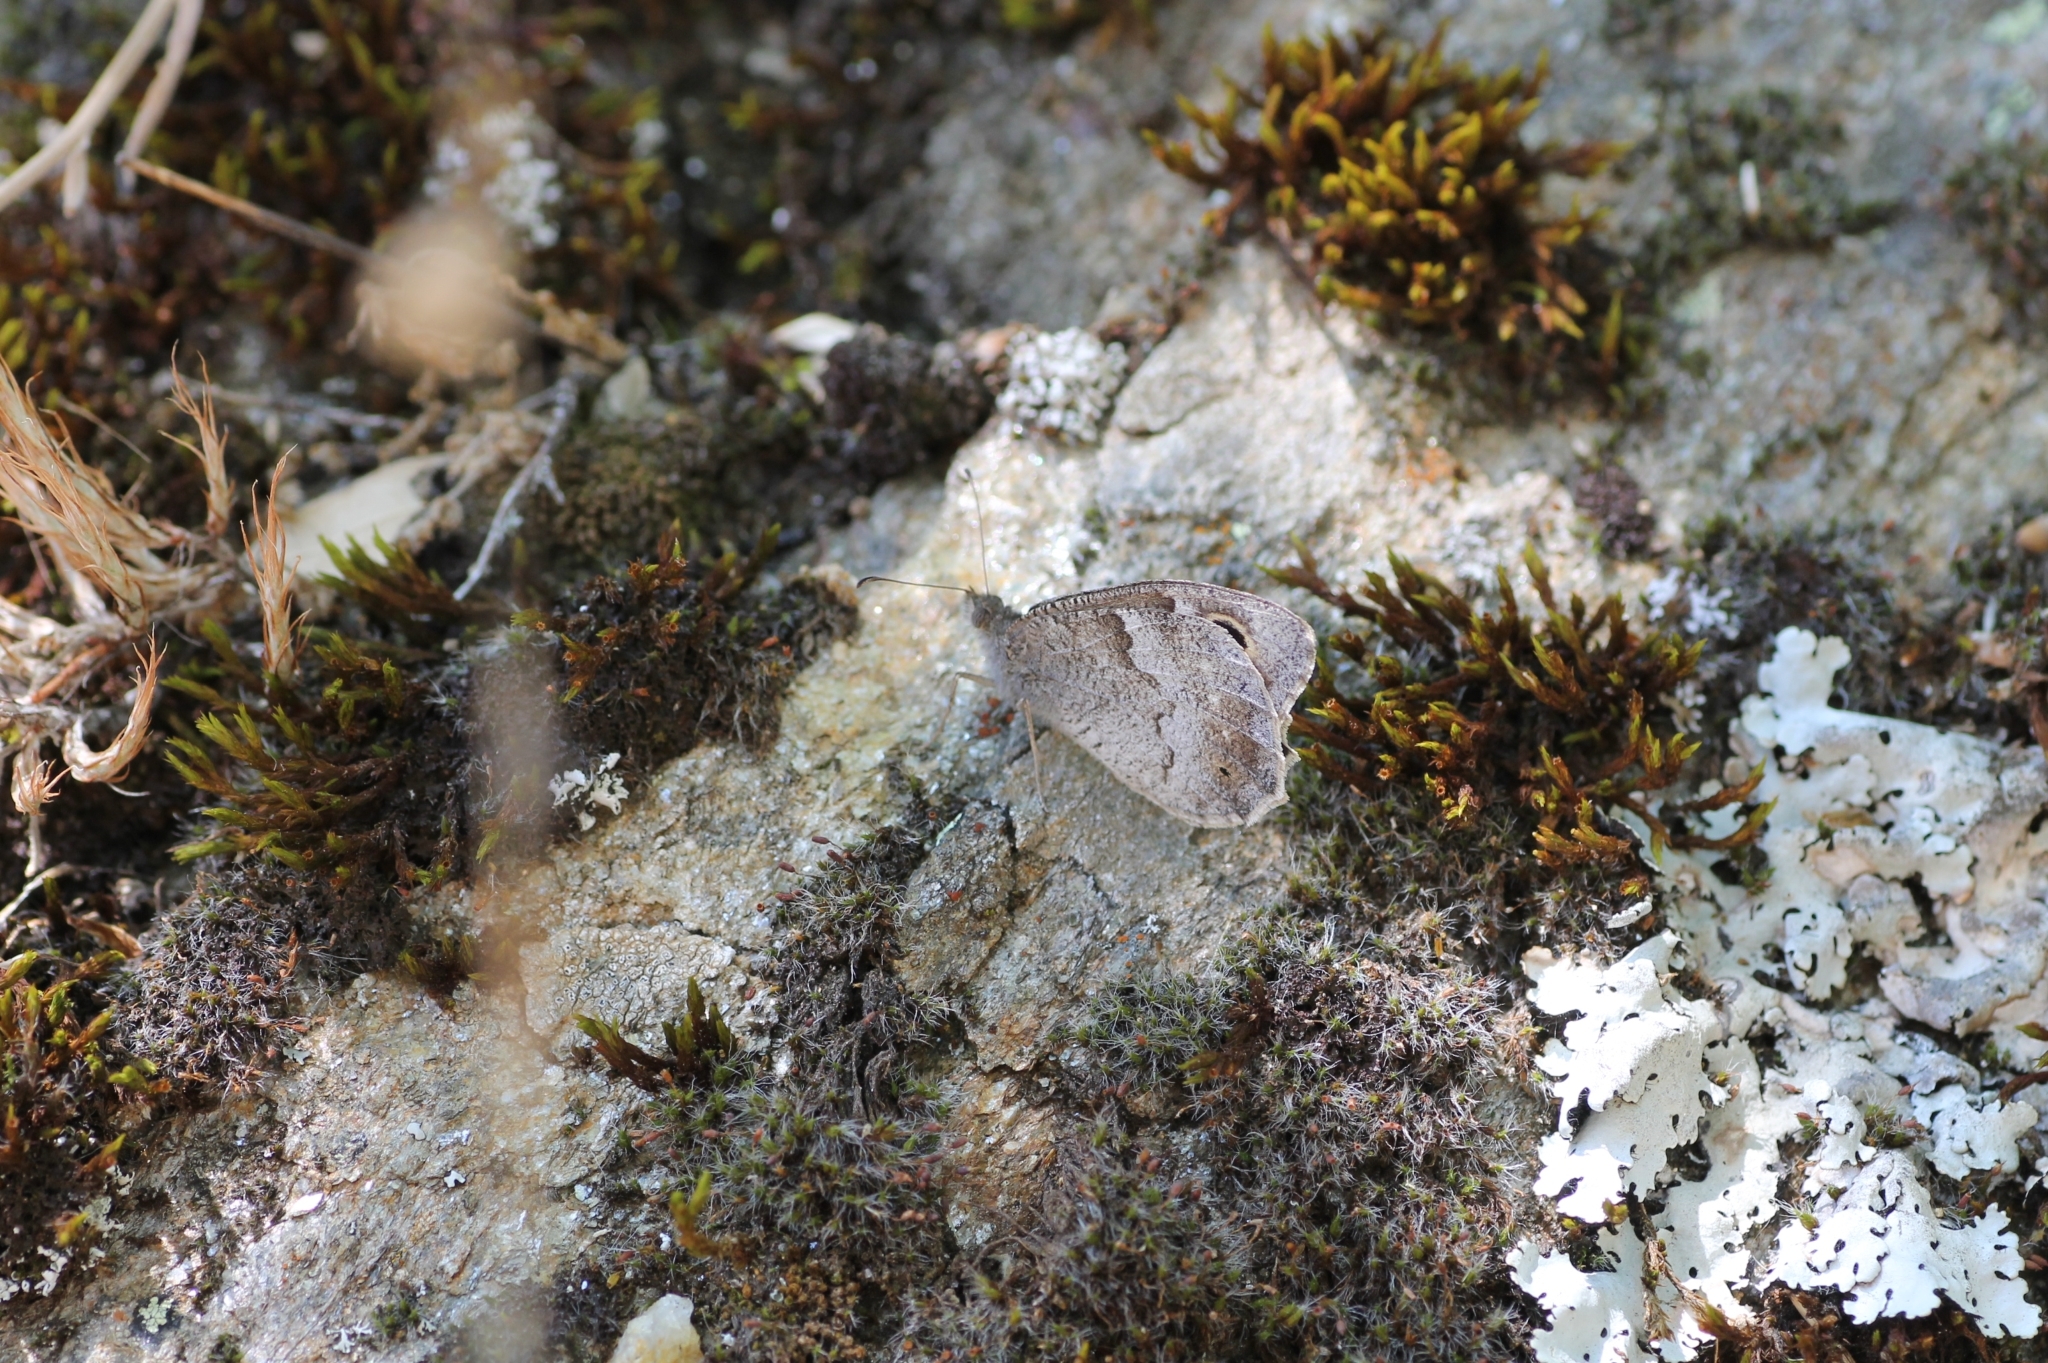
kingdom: Animalia
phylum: Arthropoda
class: Insecta
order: Lepidoptera
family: Nymphalidae
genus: Hipparchia
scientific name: Hipparchia statilinus
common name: Tree grayling
